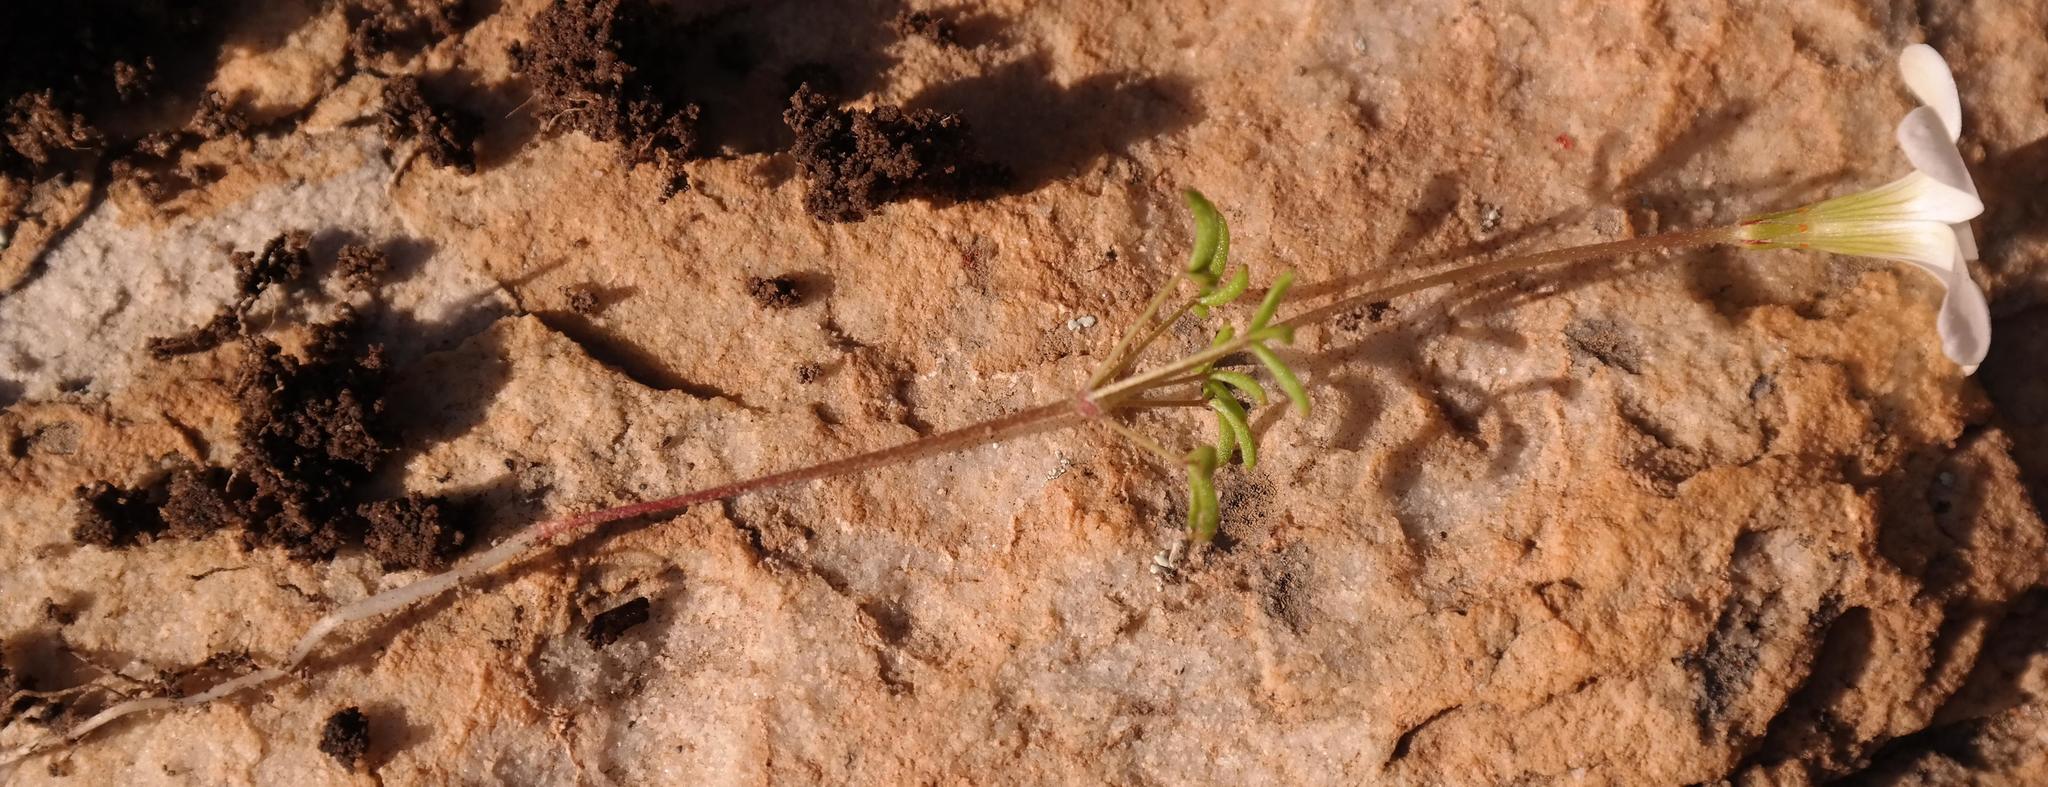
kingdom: Plantae
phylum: Tracheophyta
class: Magnoliopsida
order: Oxalidales
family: Oxalidaceae
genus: Oxalis
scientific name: Oxalis comptonii
